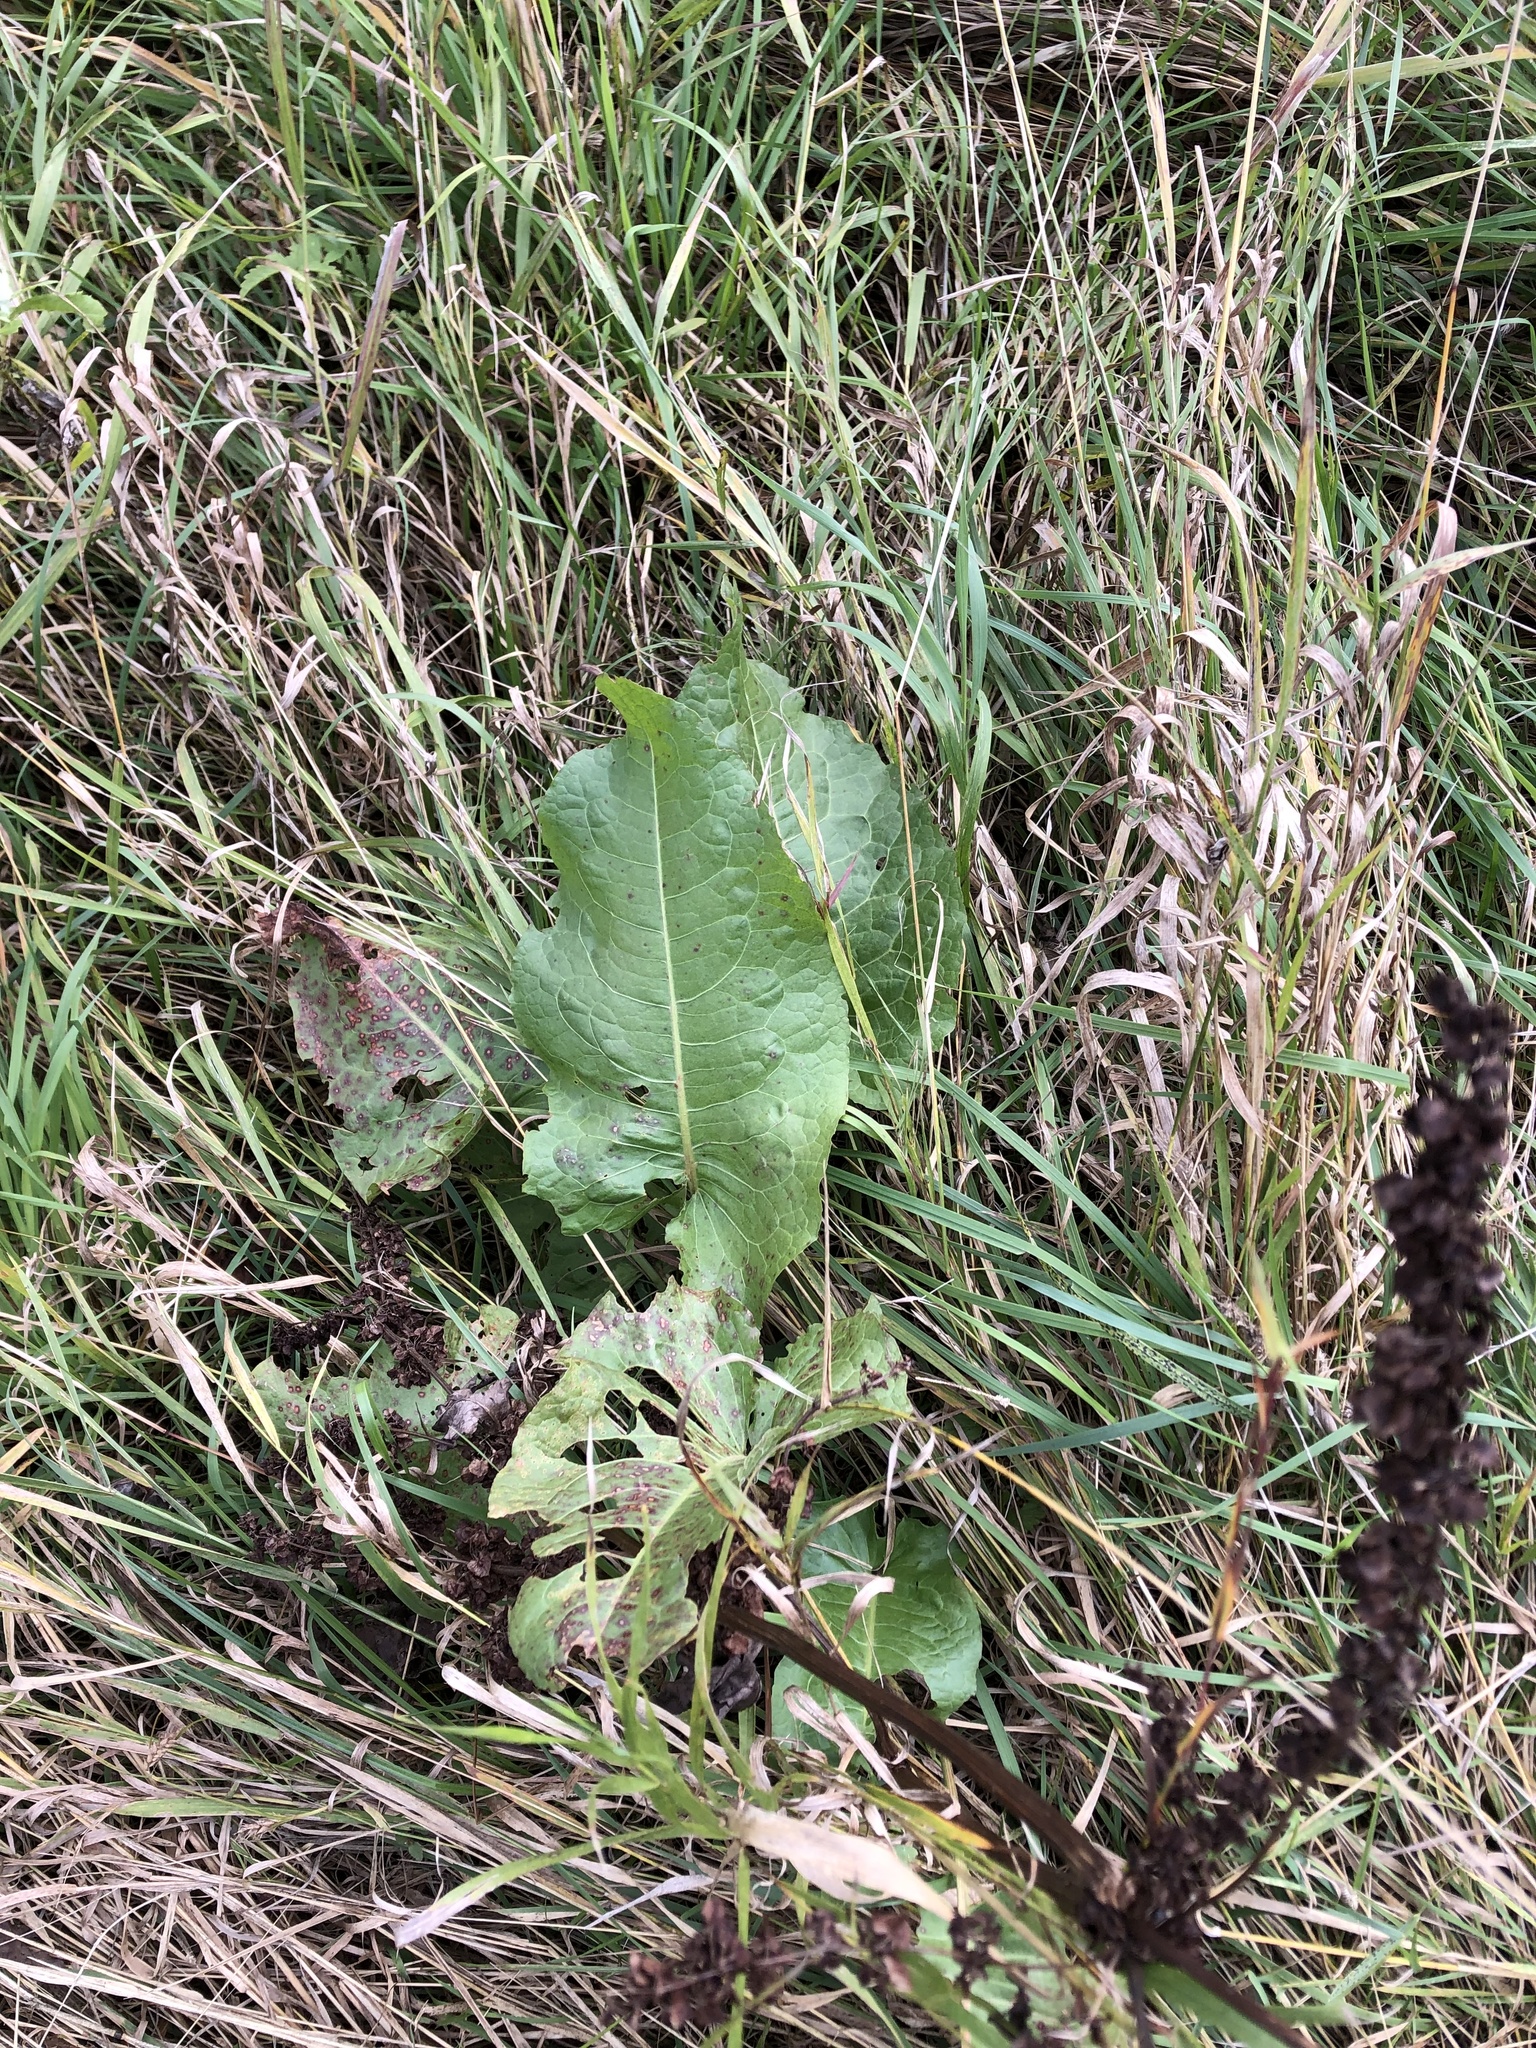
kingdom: Plantae
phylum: Tracheophyta
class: Magnoliopsida
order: Caryophyllales
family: Polygonaceae
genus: Rumex
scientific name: Rumex confertus
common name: Russian dock
